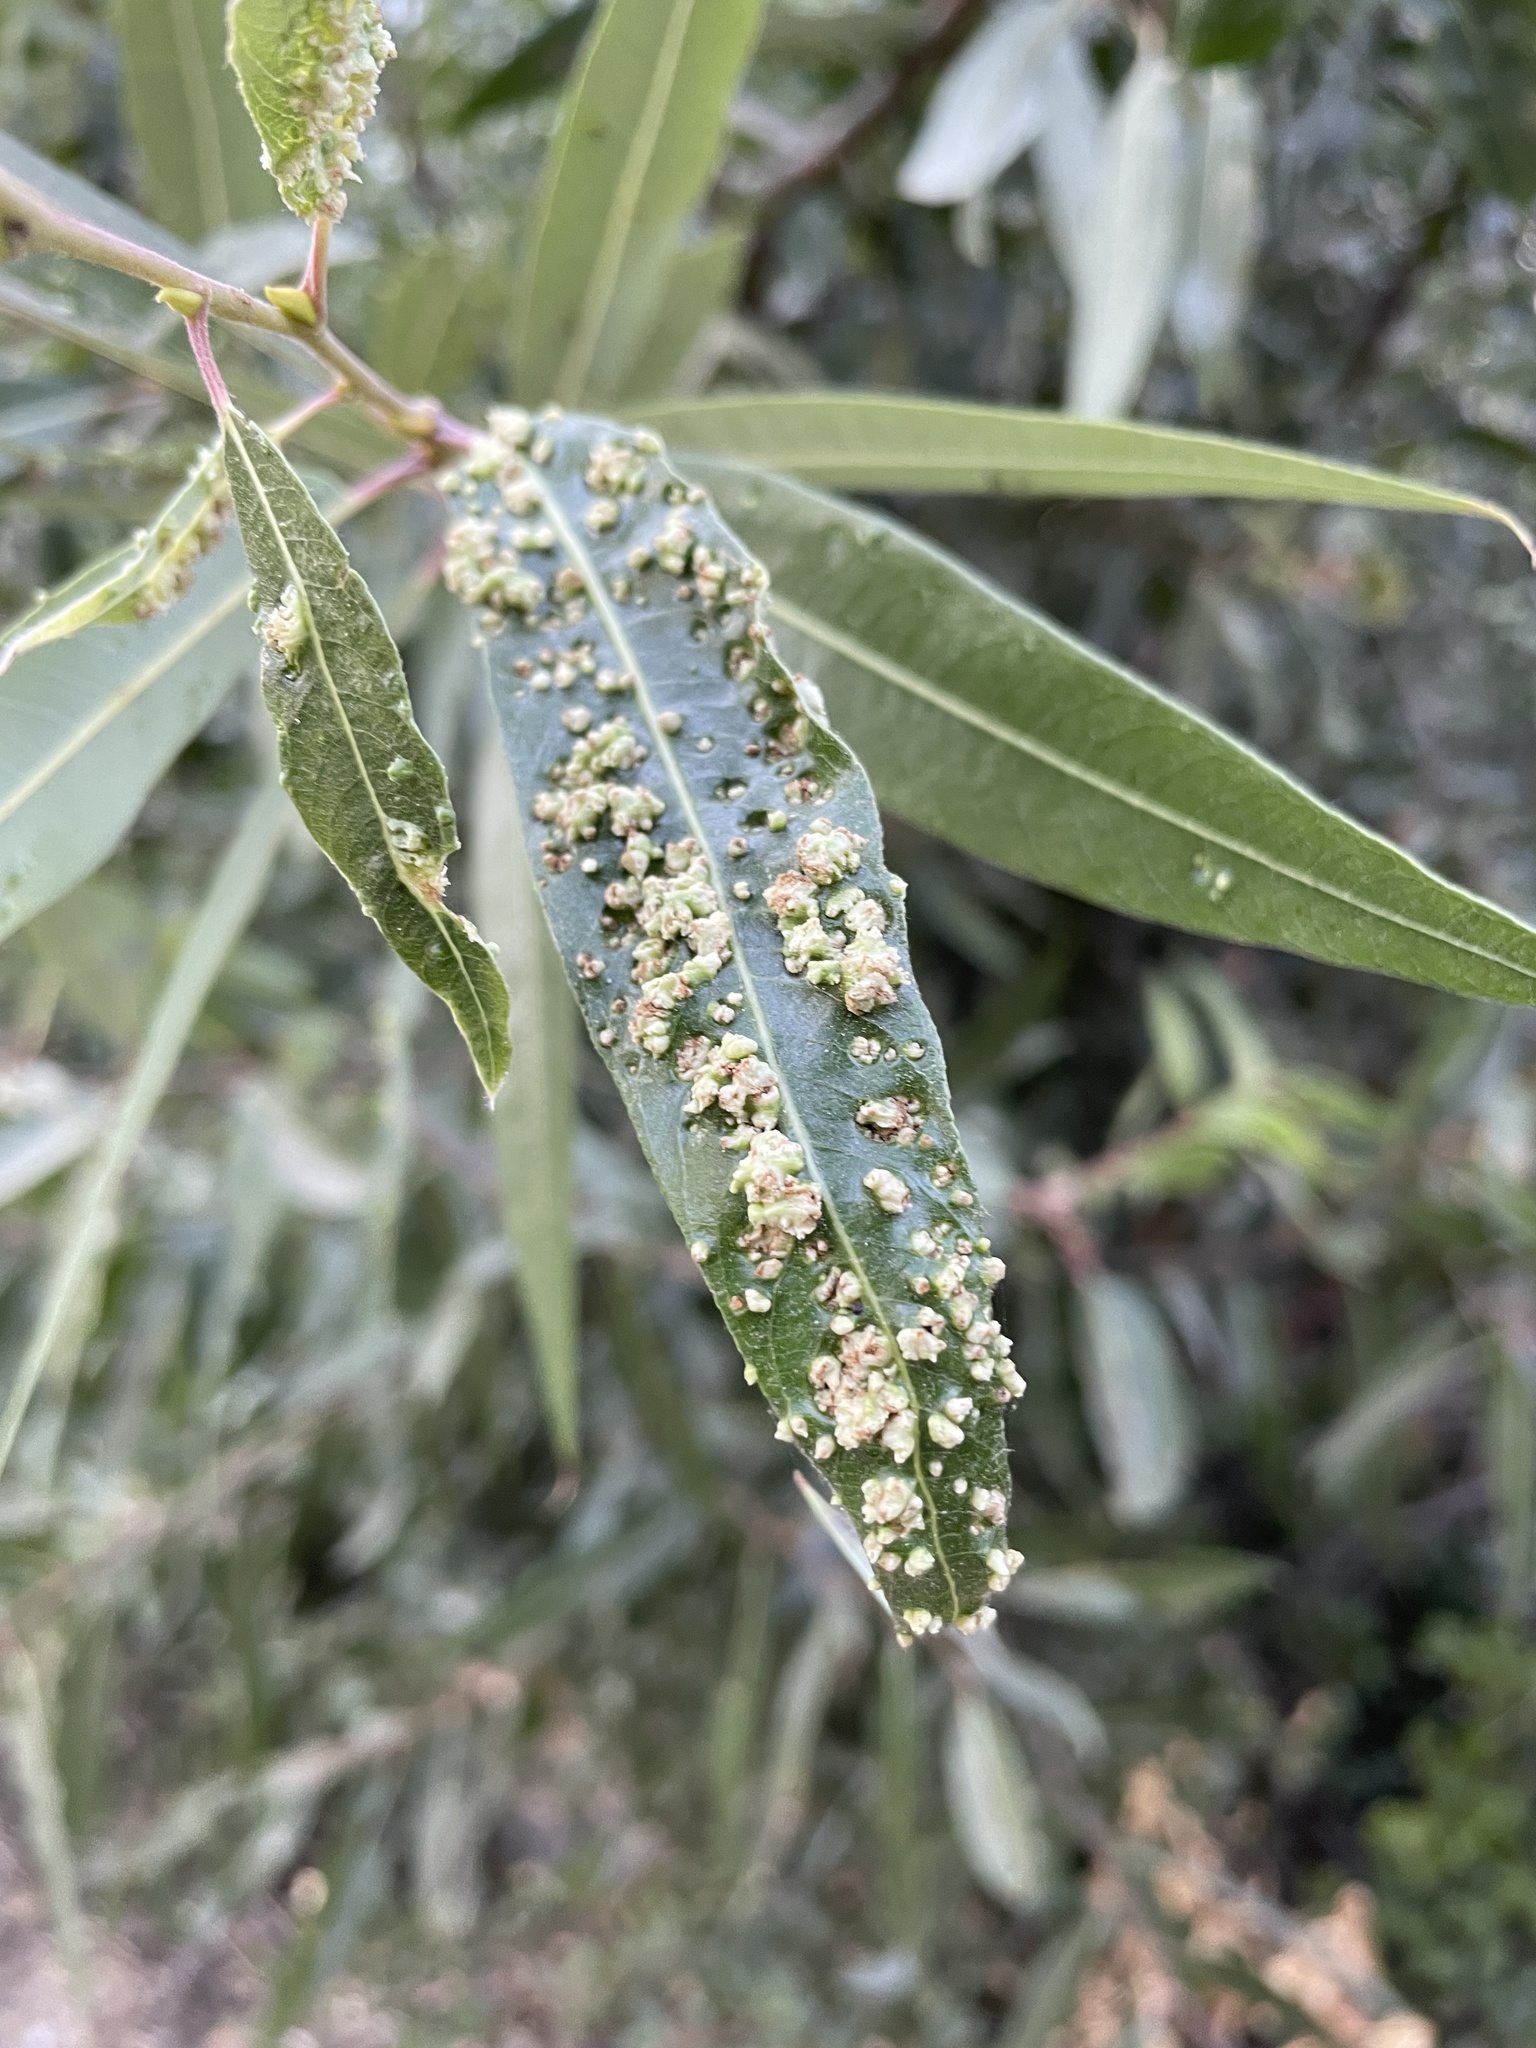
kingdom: Animalia
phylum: Arthropoda
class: Arachnida
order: Trombidiformes
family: Eriophyidae
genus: Aculus
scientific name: Aculus tetanothrix
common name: Willow bead gall mite
